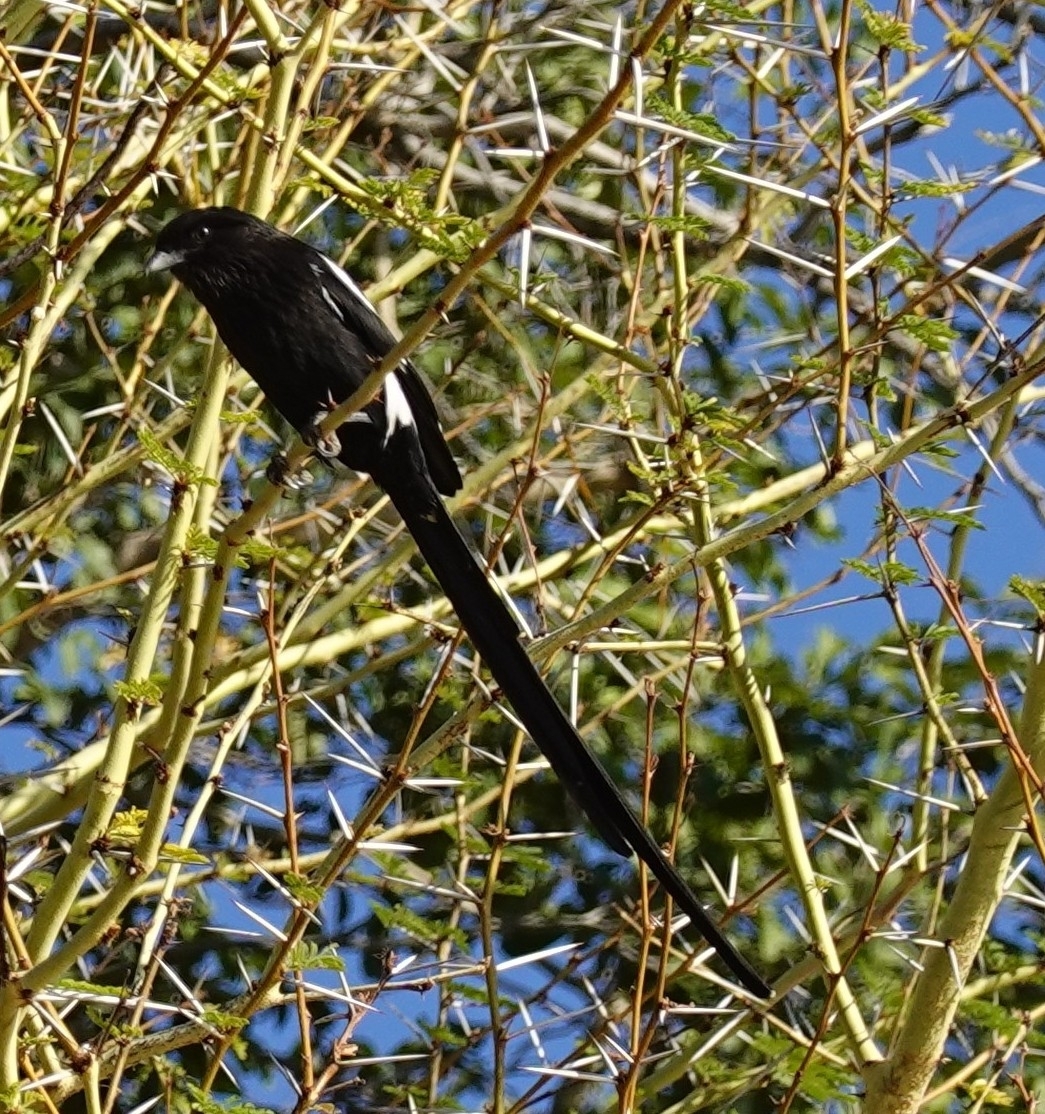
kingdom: Animalia
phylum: Chordata
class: Aves
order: Passeriformes
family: Laniidae
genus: Urolestes
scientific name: Urolestes melanoleucus
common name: Magpie shrike
